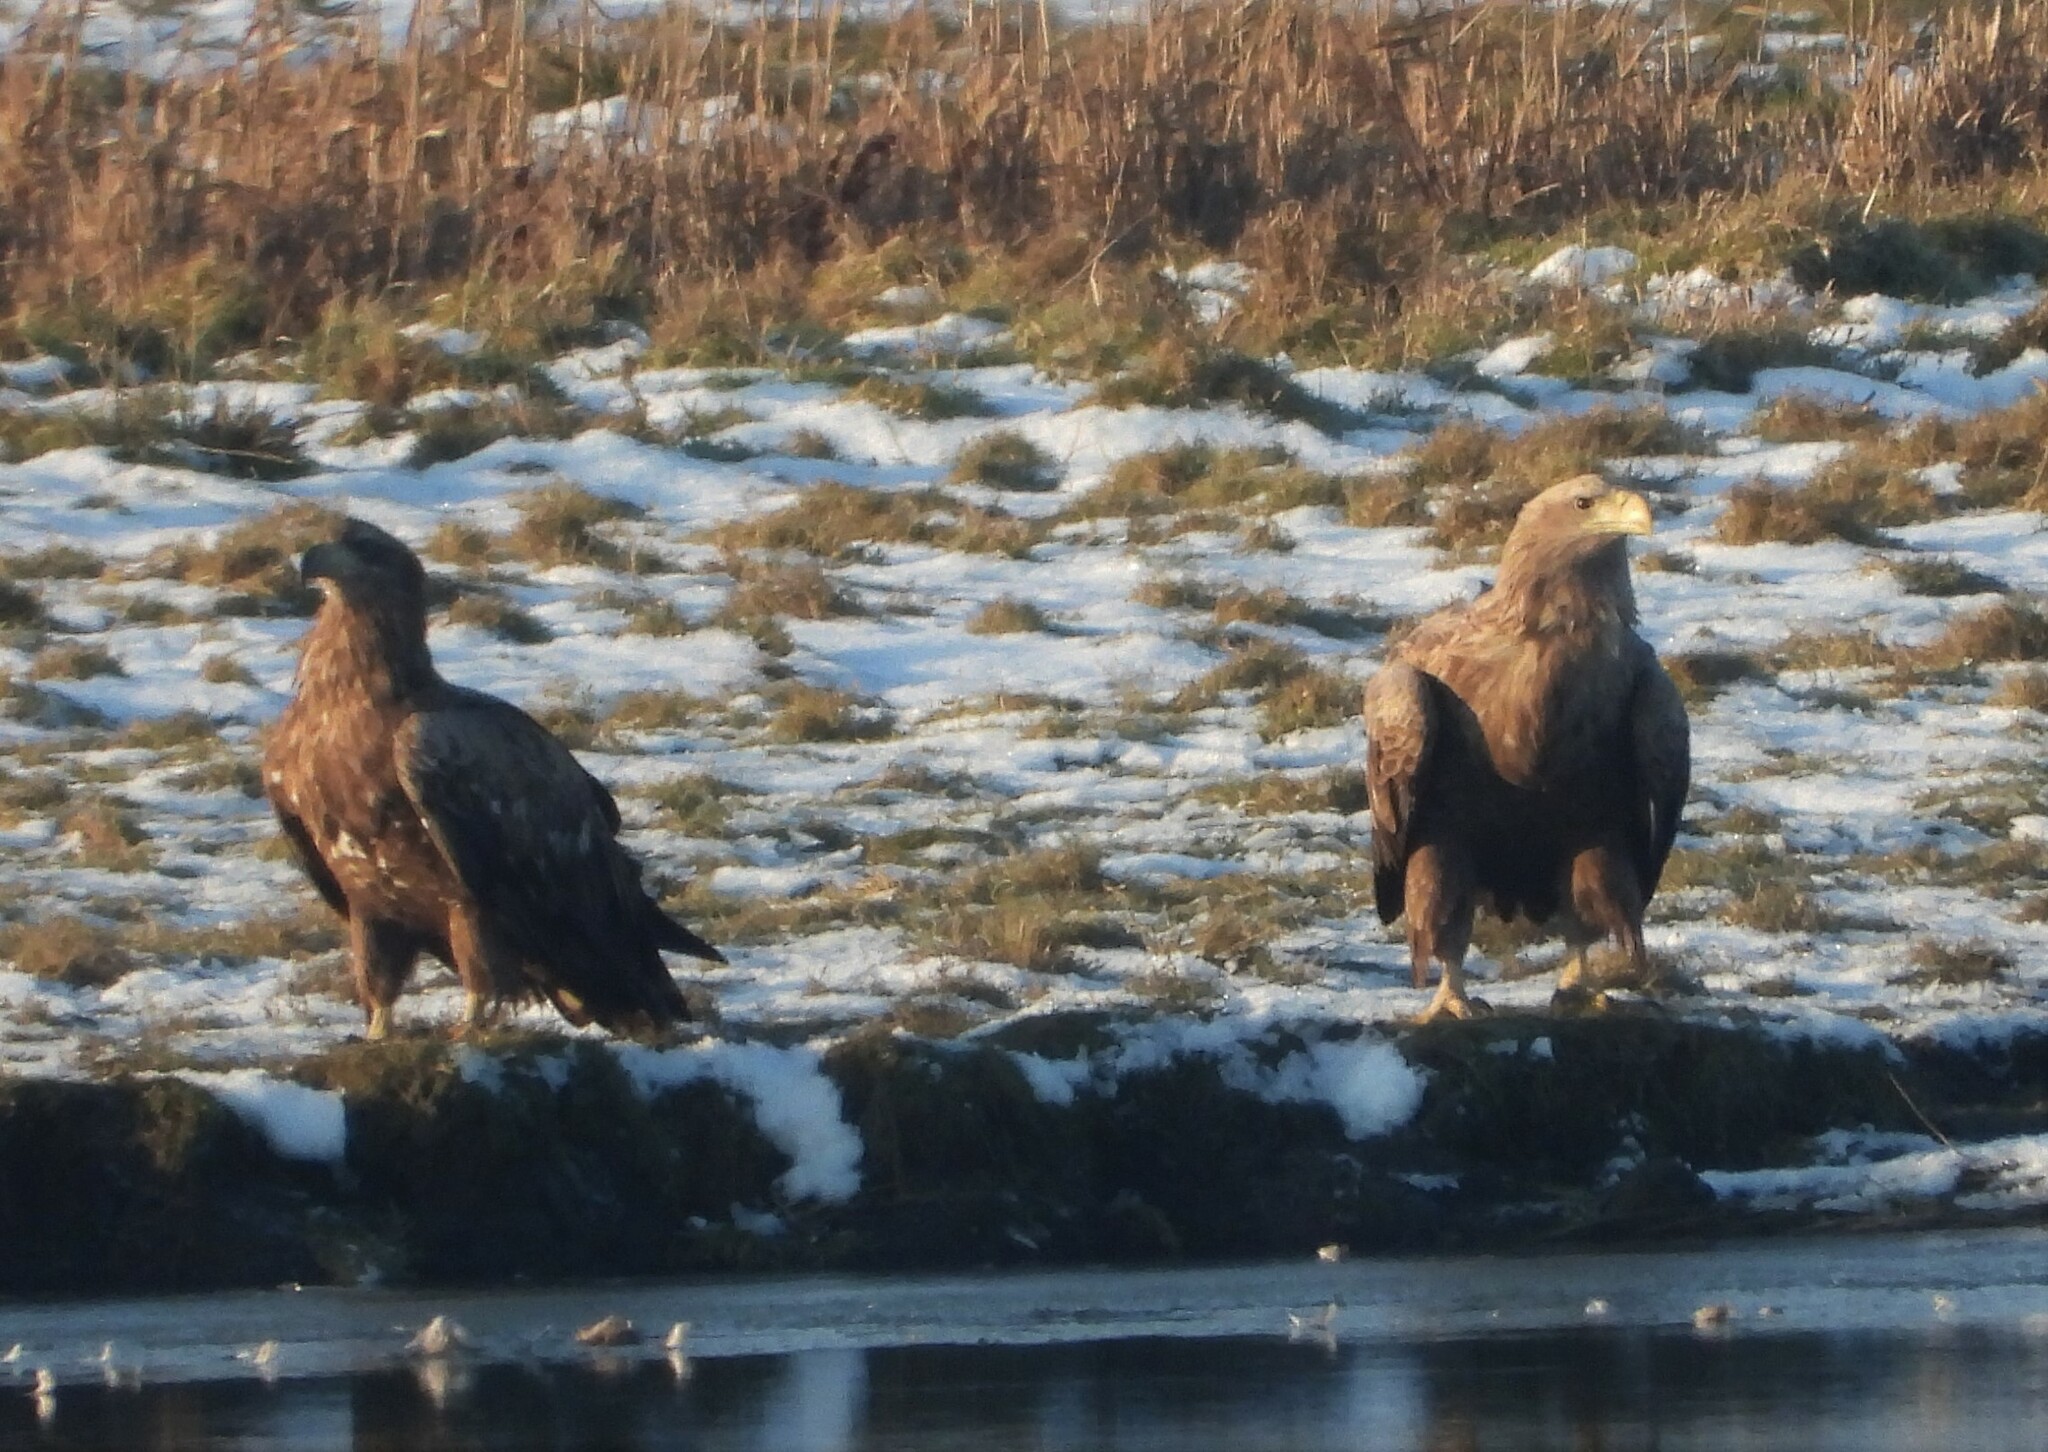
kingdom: Animalia
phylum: Chordata
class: Aves
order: Accipitriformes
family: Accipitridae
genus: Haliaeetus
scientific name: Haliaeetus albicilla
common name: White-tailed eagle
